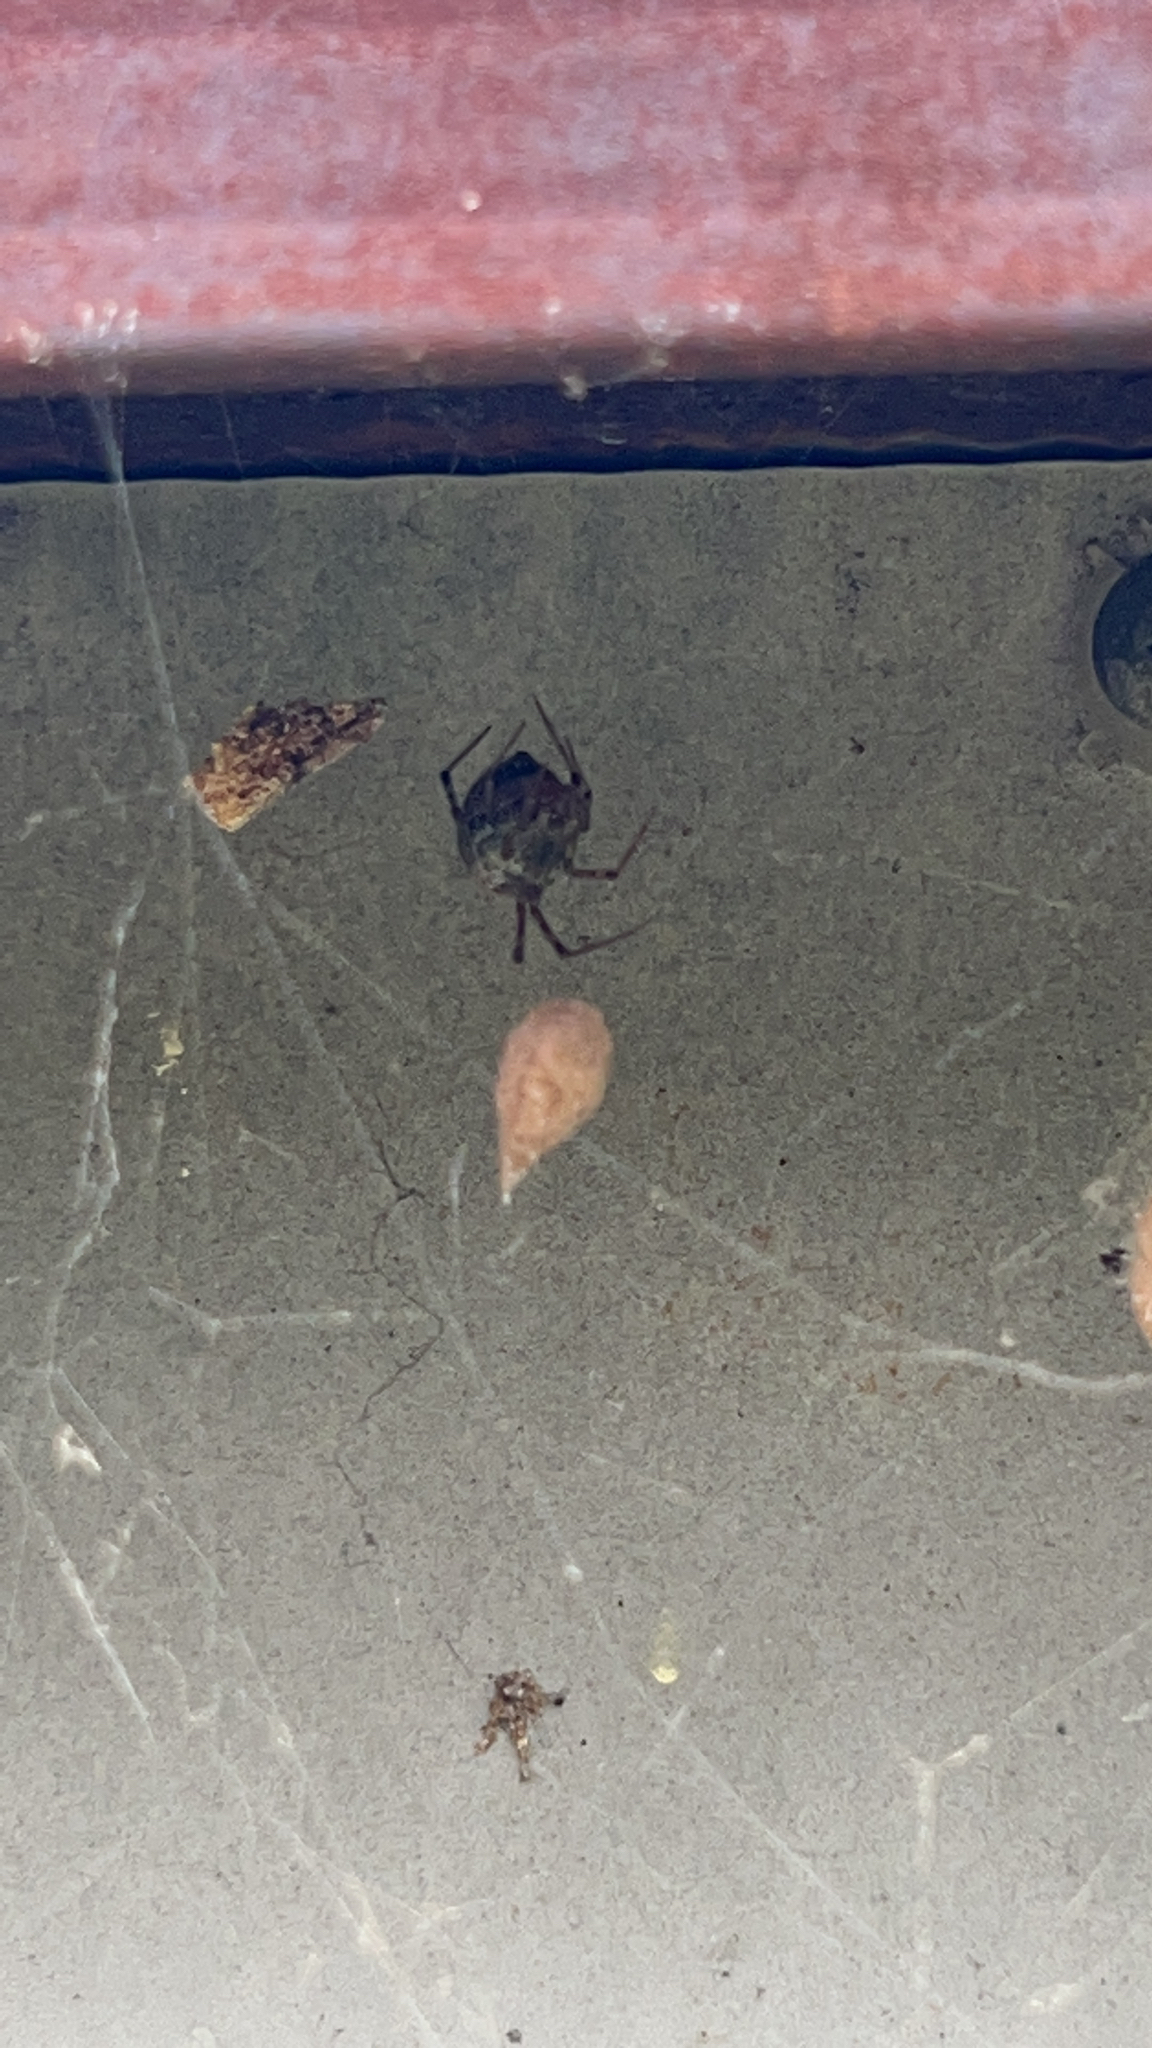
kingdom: Animalia
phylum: Arthropoda
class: Arachnida
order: Araneae
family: Theridiidae
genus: Parasteatoda
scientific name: Parasteatoda tepidariorum
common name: Common house spider
